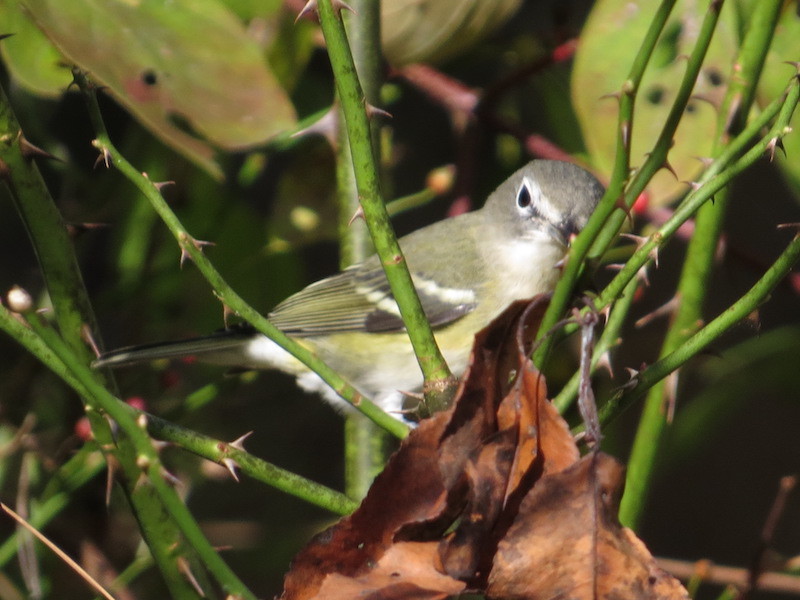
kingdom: Animalia
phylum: Chordata
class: Aves
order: Passeriformes
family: Vireonidae
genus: Vireo
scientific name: Vireo solitarius
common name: Blue-headed vireo
